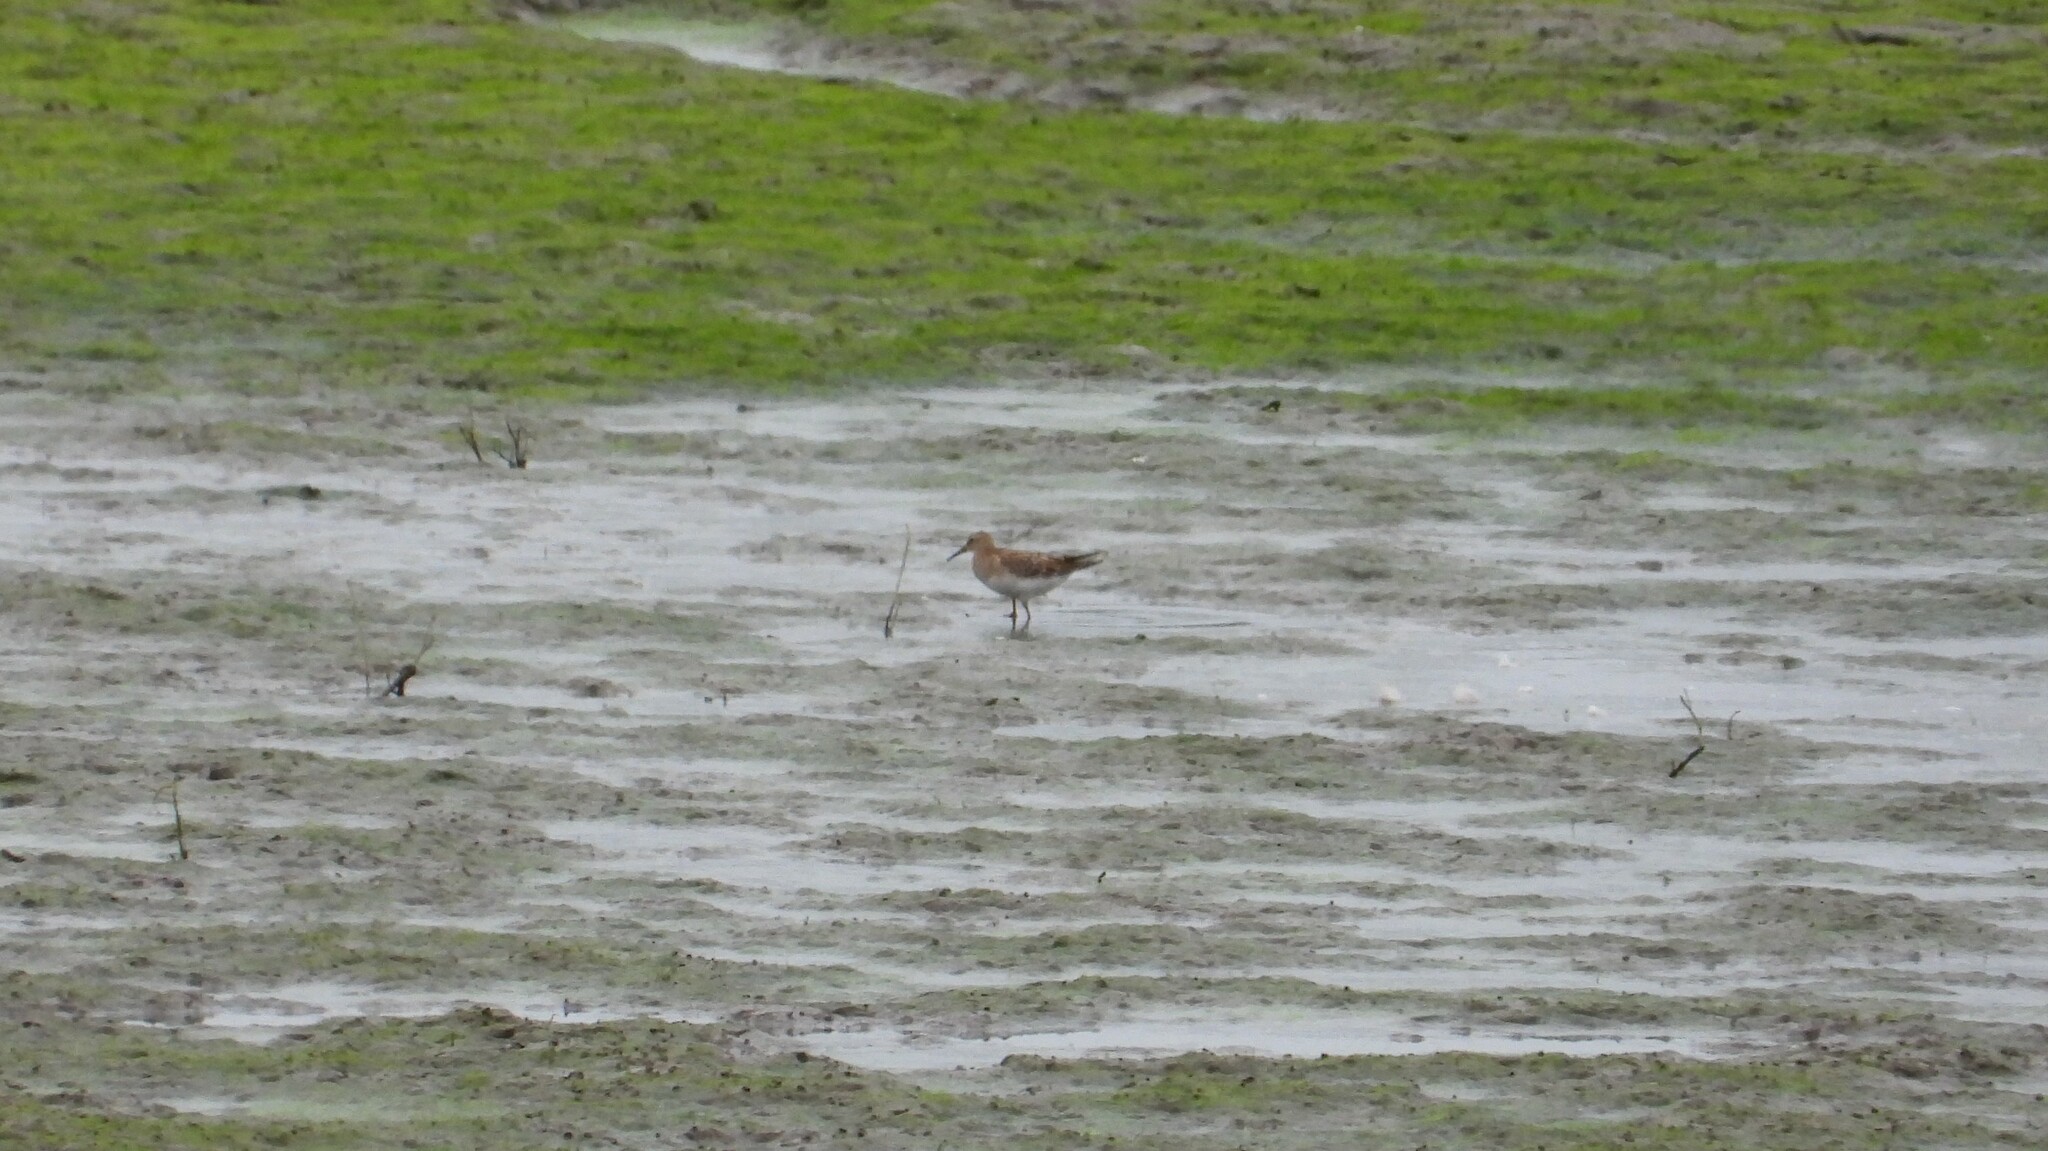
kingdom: Animalia
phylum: Chordata
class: Aves
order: Charadriiformes
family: Scolopacidae
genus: Calidris
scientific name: Calidris melanotos
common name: Pectoral sandpiper
